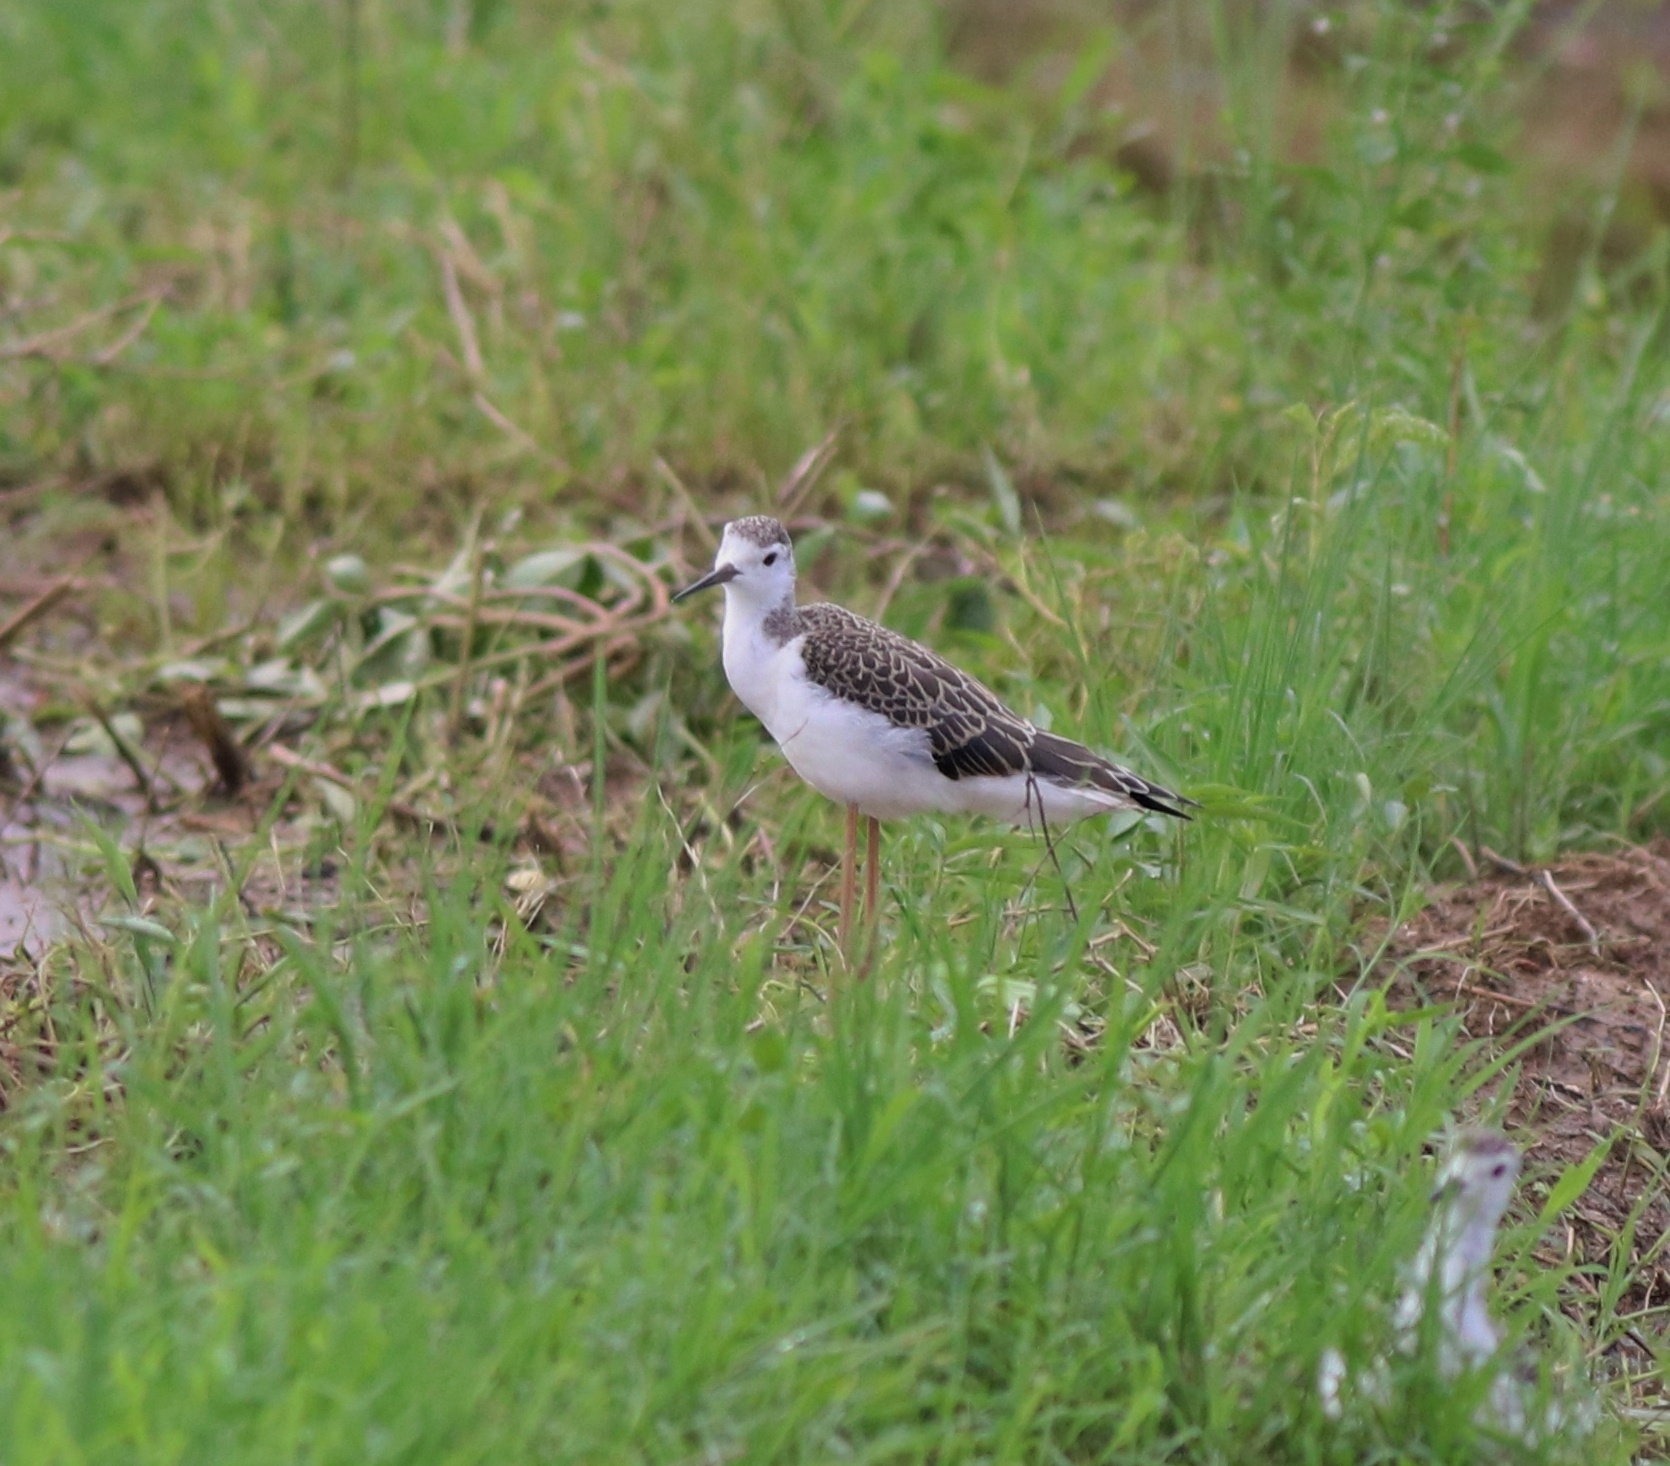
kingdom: Animalia
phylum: Chordata
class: Aves
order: Charadriiformes
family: Recurvirostridae
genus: Himantopus
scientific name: Himantopus himantopus
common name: Black-winged stilt
